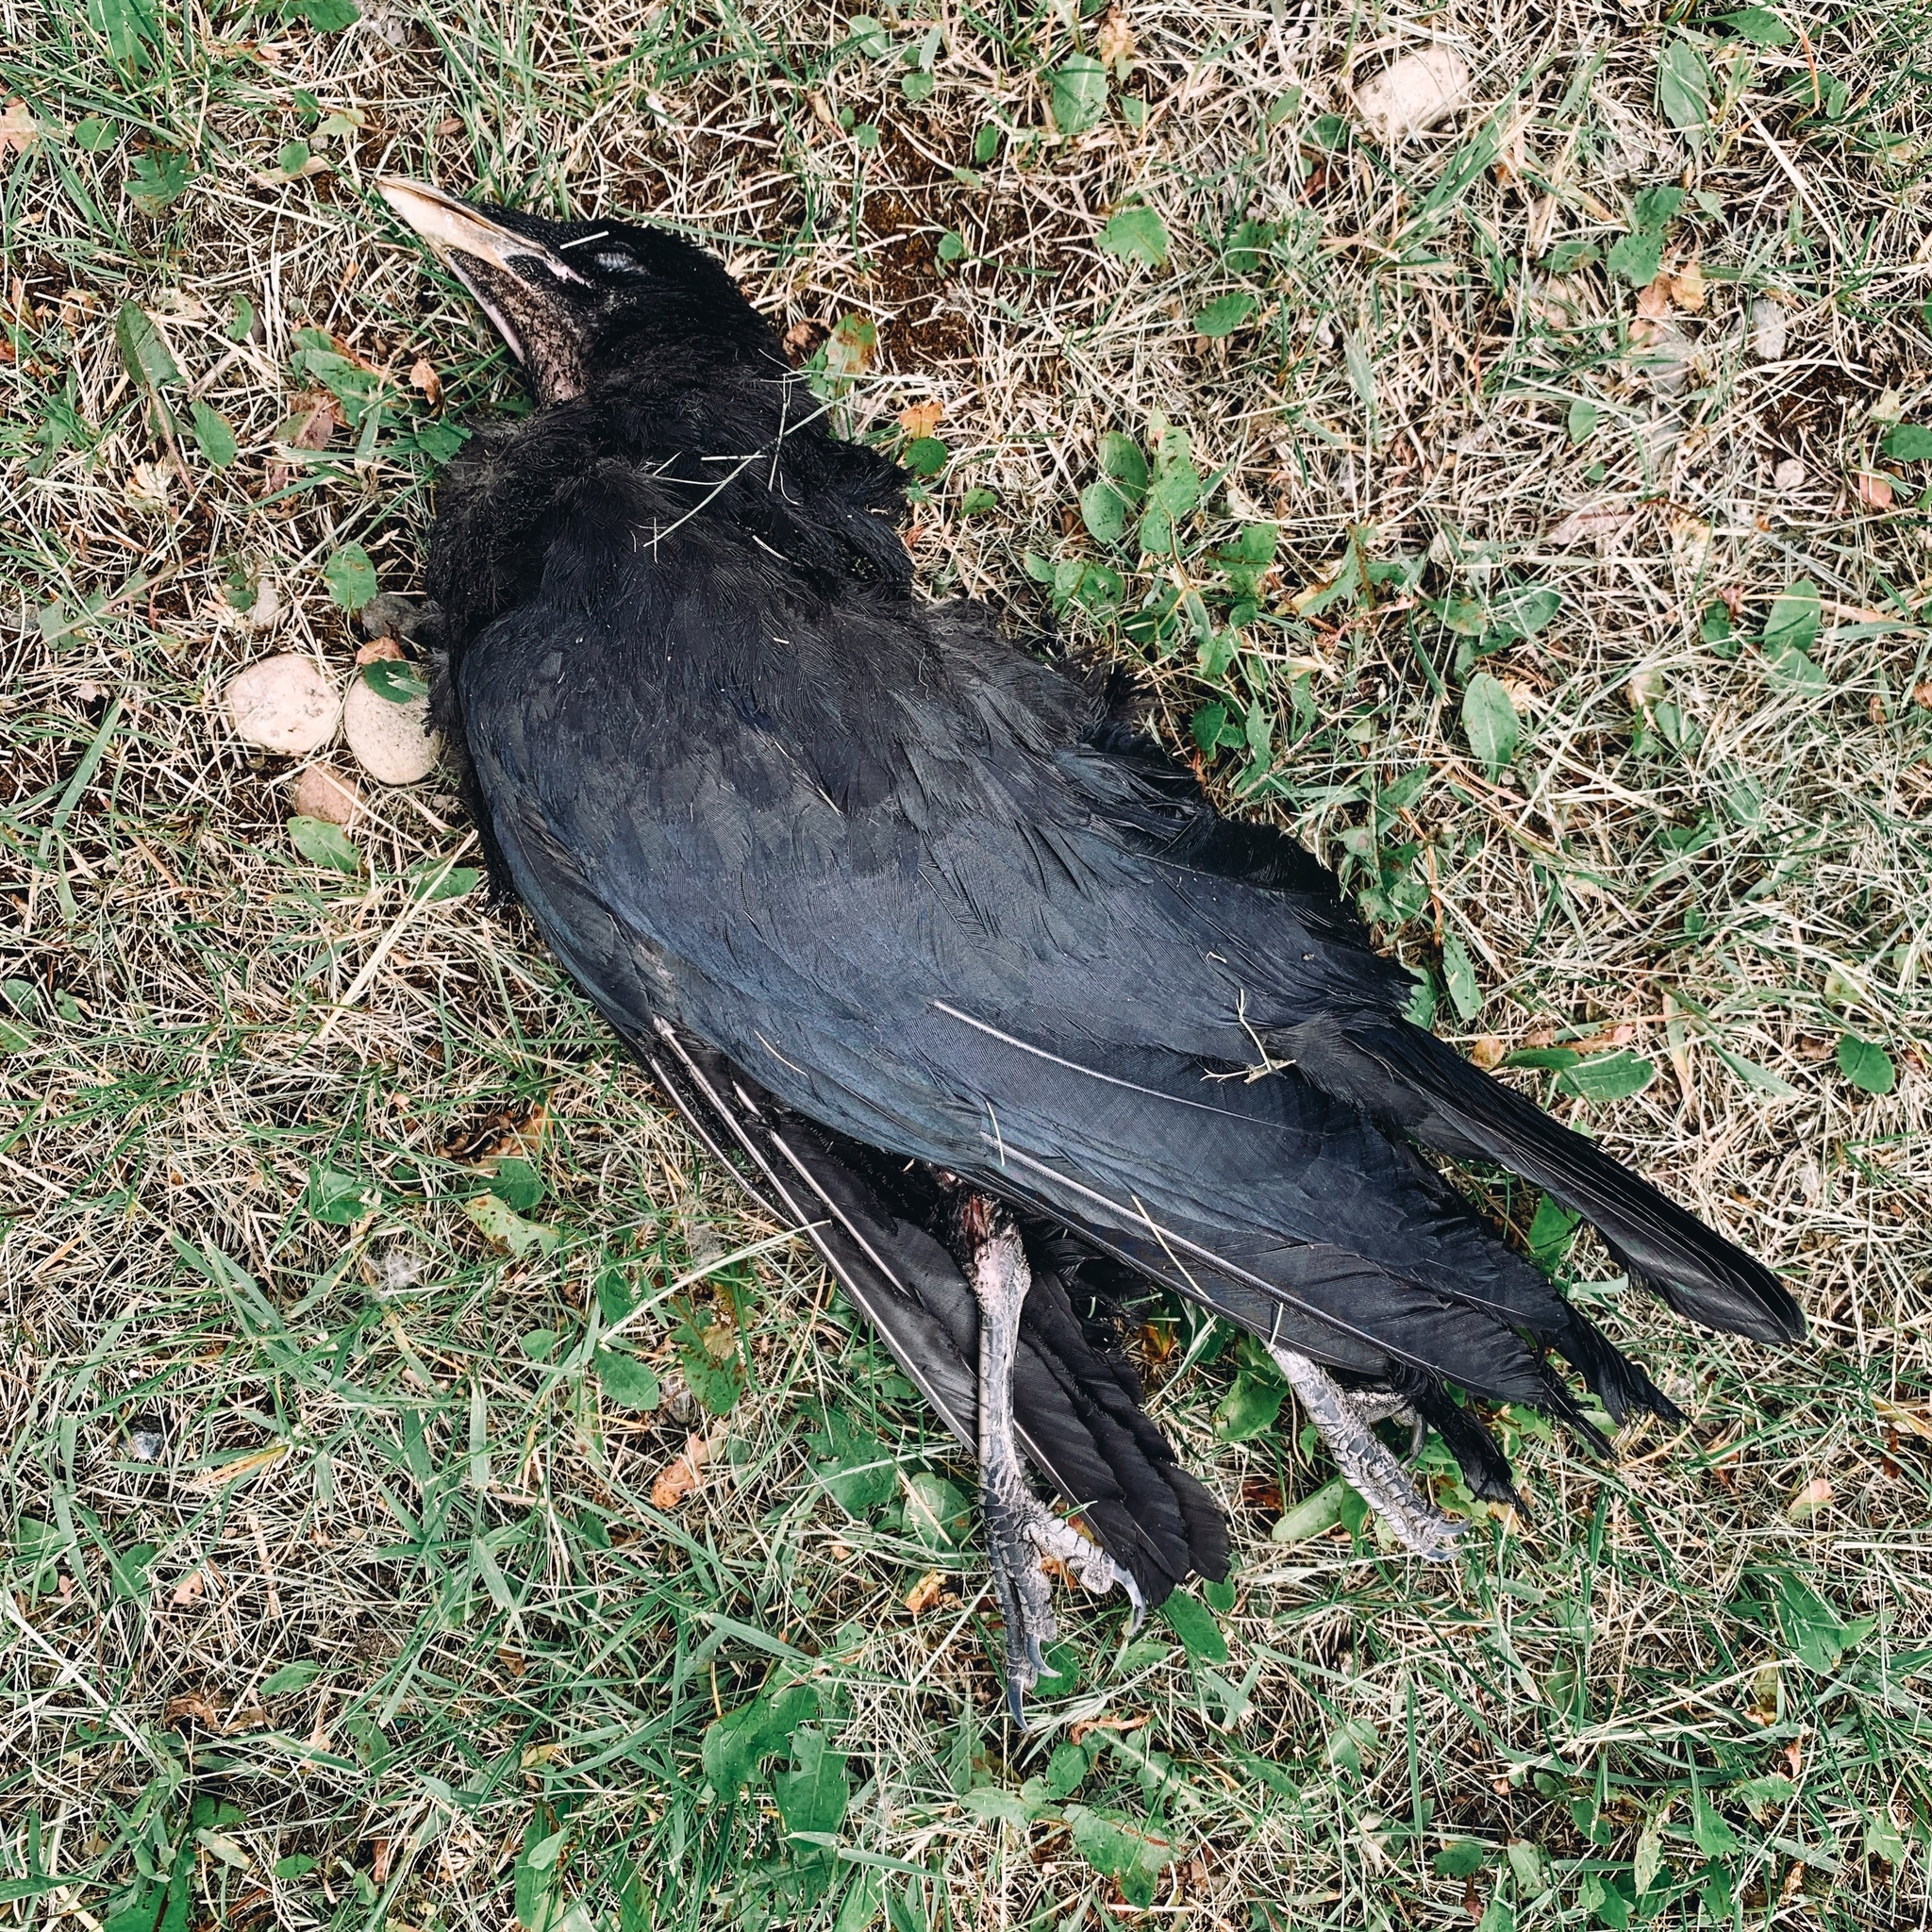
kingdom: Animalia
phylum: Chordata
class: Aves
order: Passeriformes
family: Corvidae
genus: Corvus
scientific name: Corvus brachyrhynchos
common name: American crow
